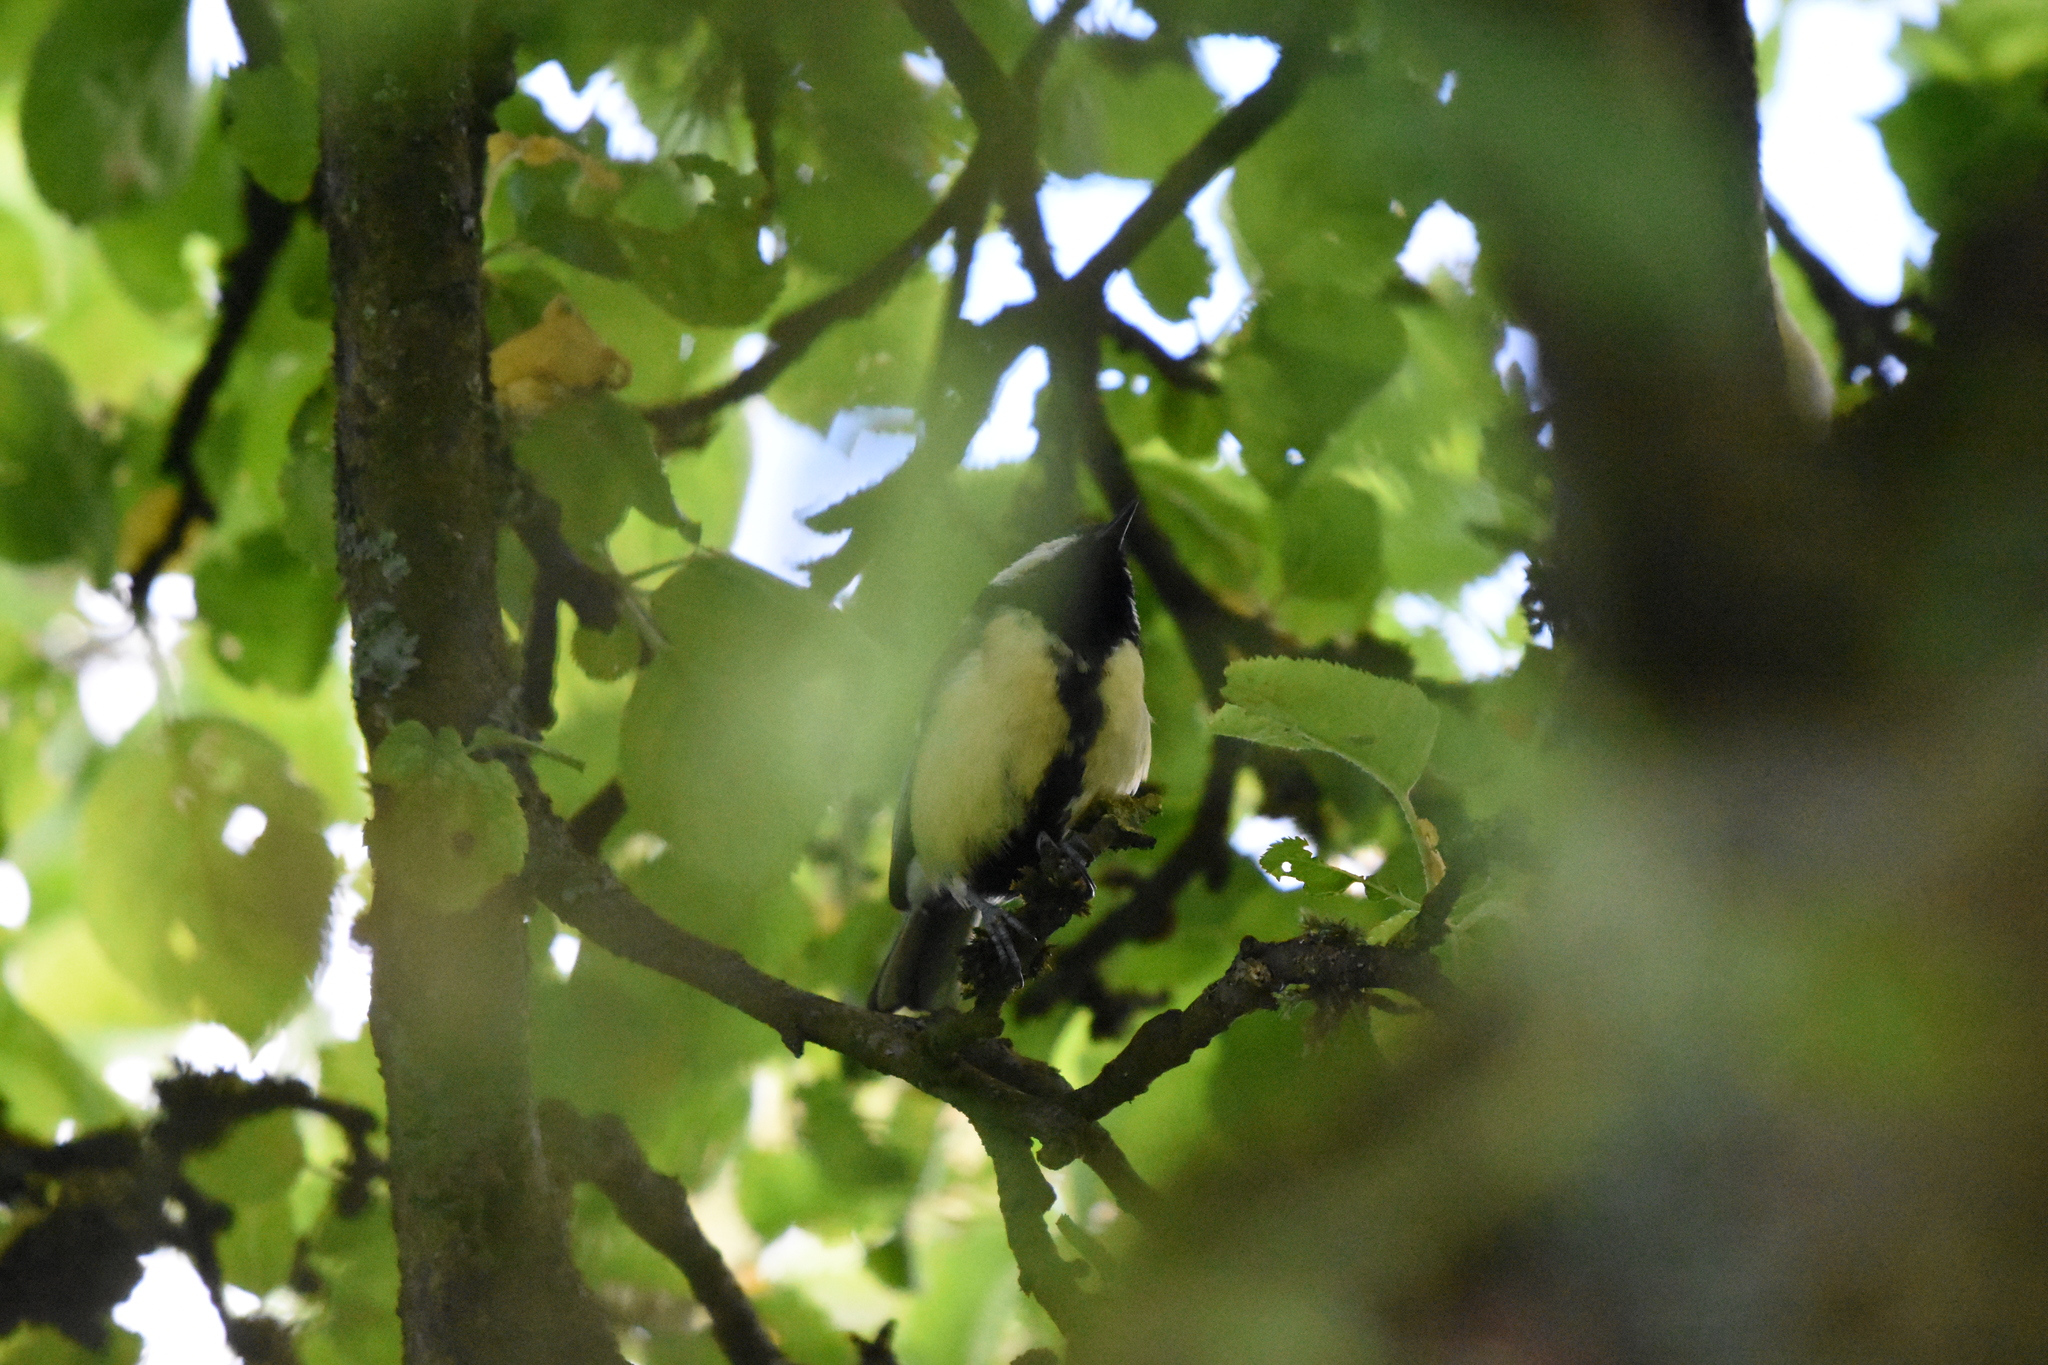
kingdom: Animalia
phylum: Chordata
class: Aves
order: Passeriformes
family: Paridae
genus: Parus
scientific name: Parus major
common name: Great tit
